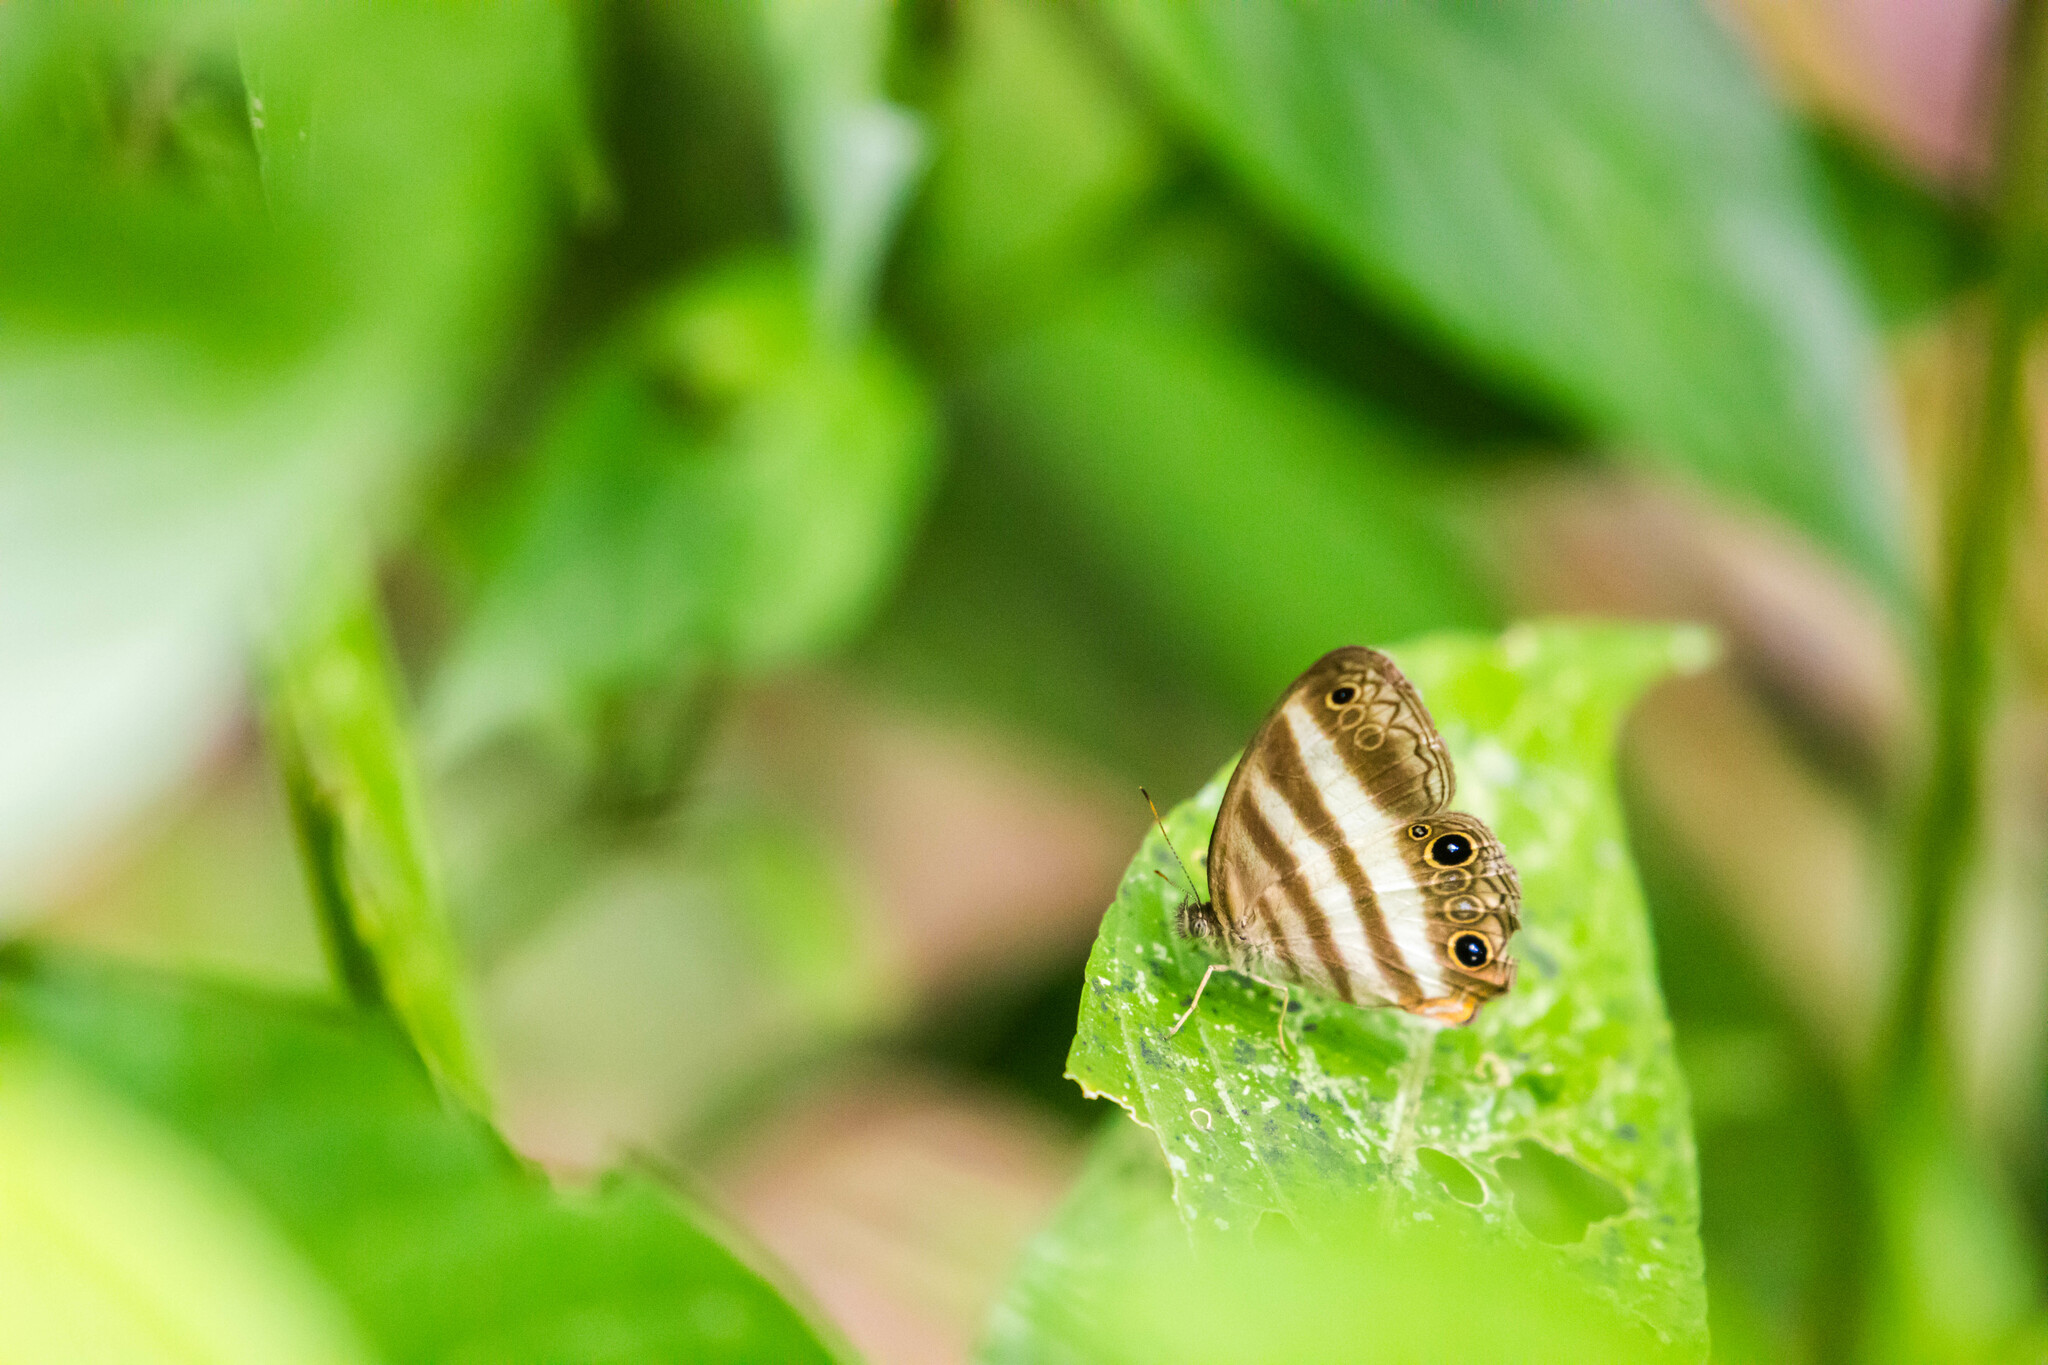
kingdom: Animalia
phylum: Arthropoda
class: Insecta
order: Lepidoptera
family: Nymphalidae
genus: Pareuptychia
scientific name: Pareuptychia hesione
